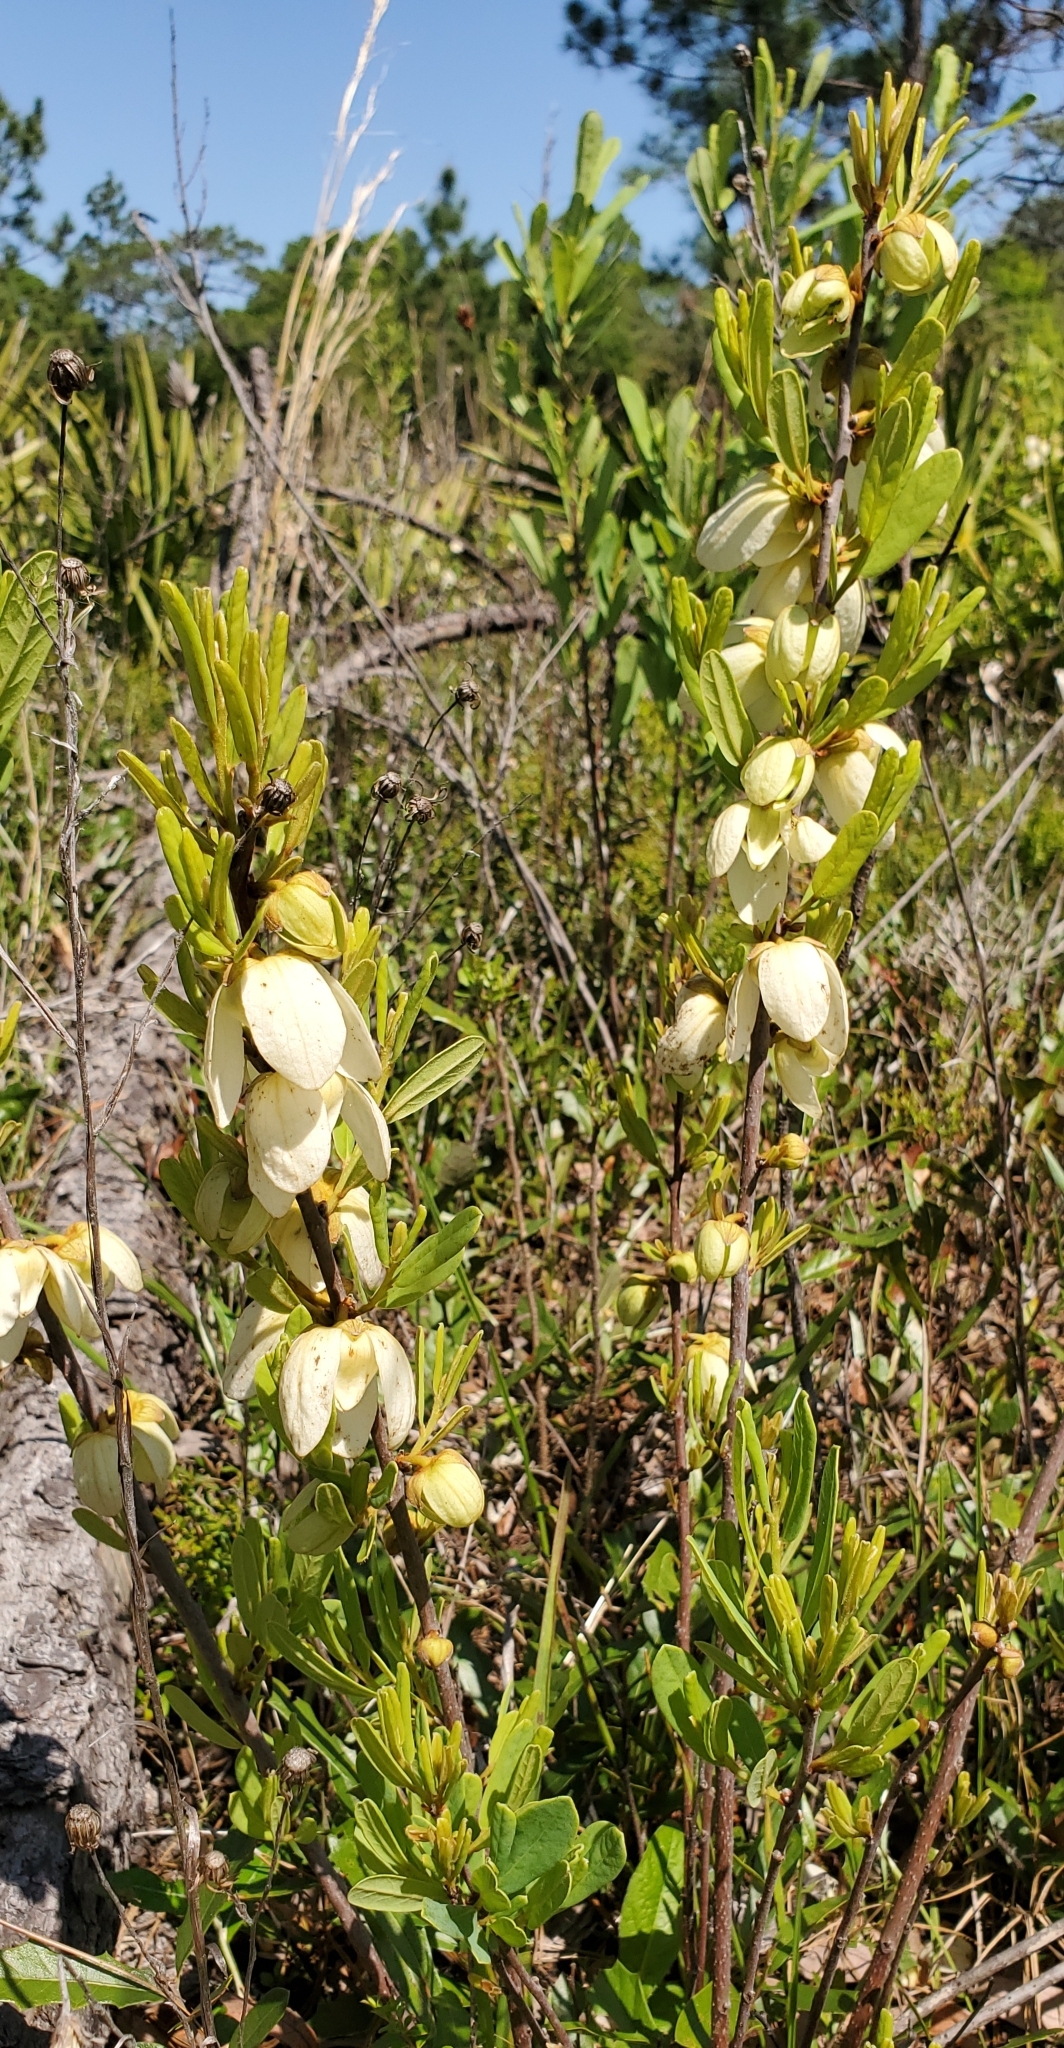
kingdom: Plantae
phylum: Tracheophyta
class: Magnoliopsida
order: Magnoliales
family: Annonaceae
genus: Asimina
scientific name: Asimina reticulata
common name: Flag pawpaw
